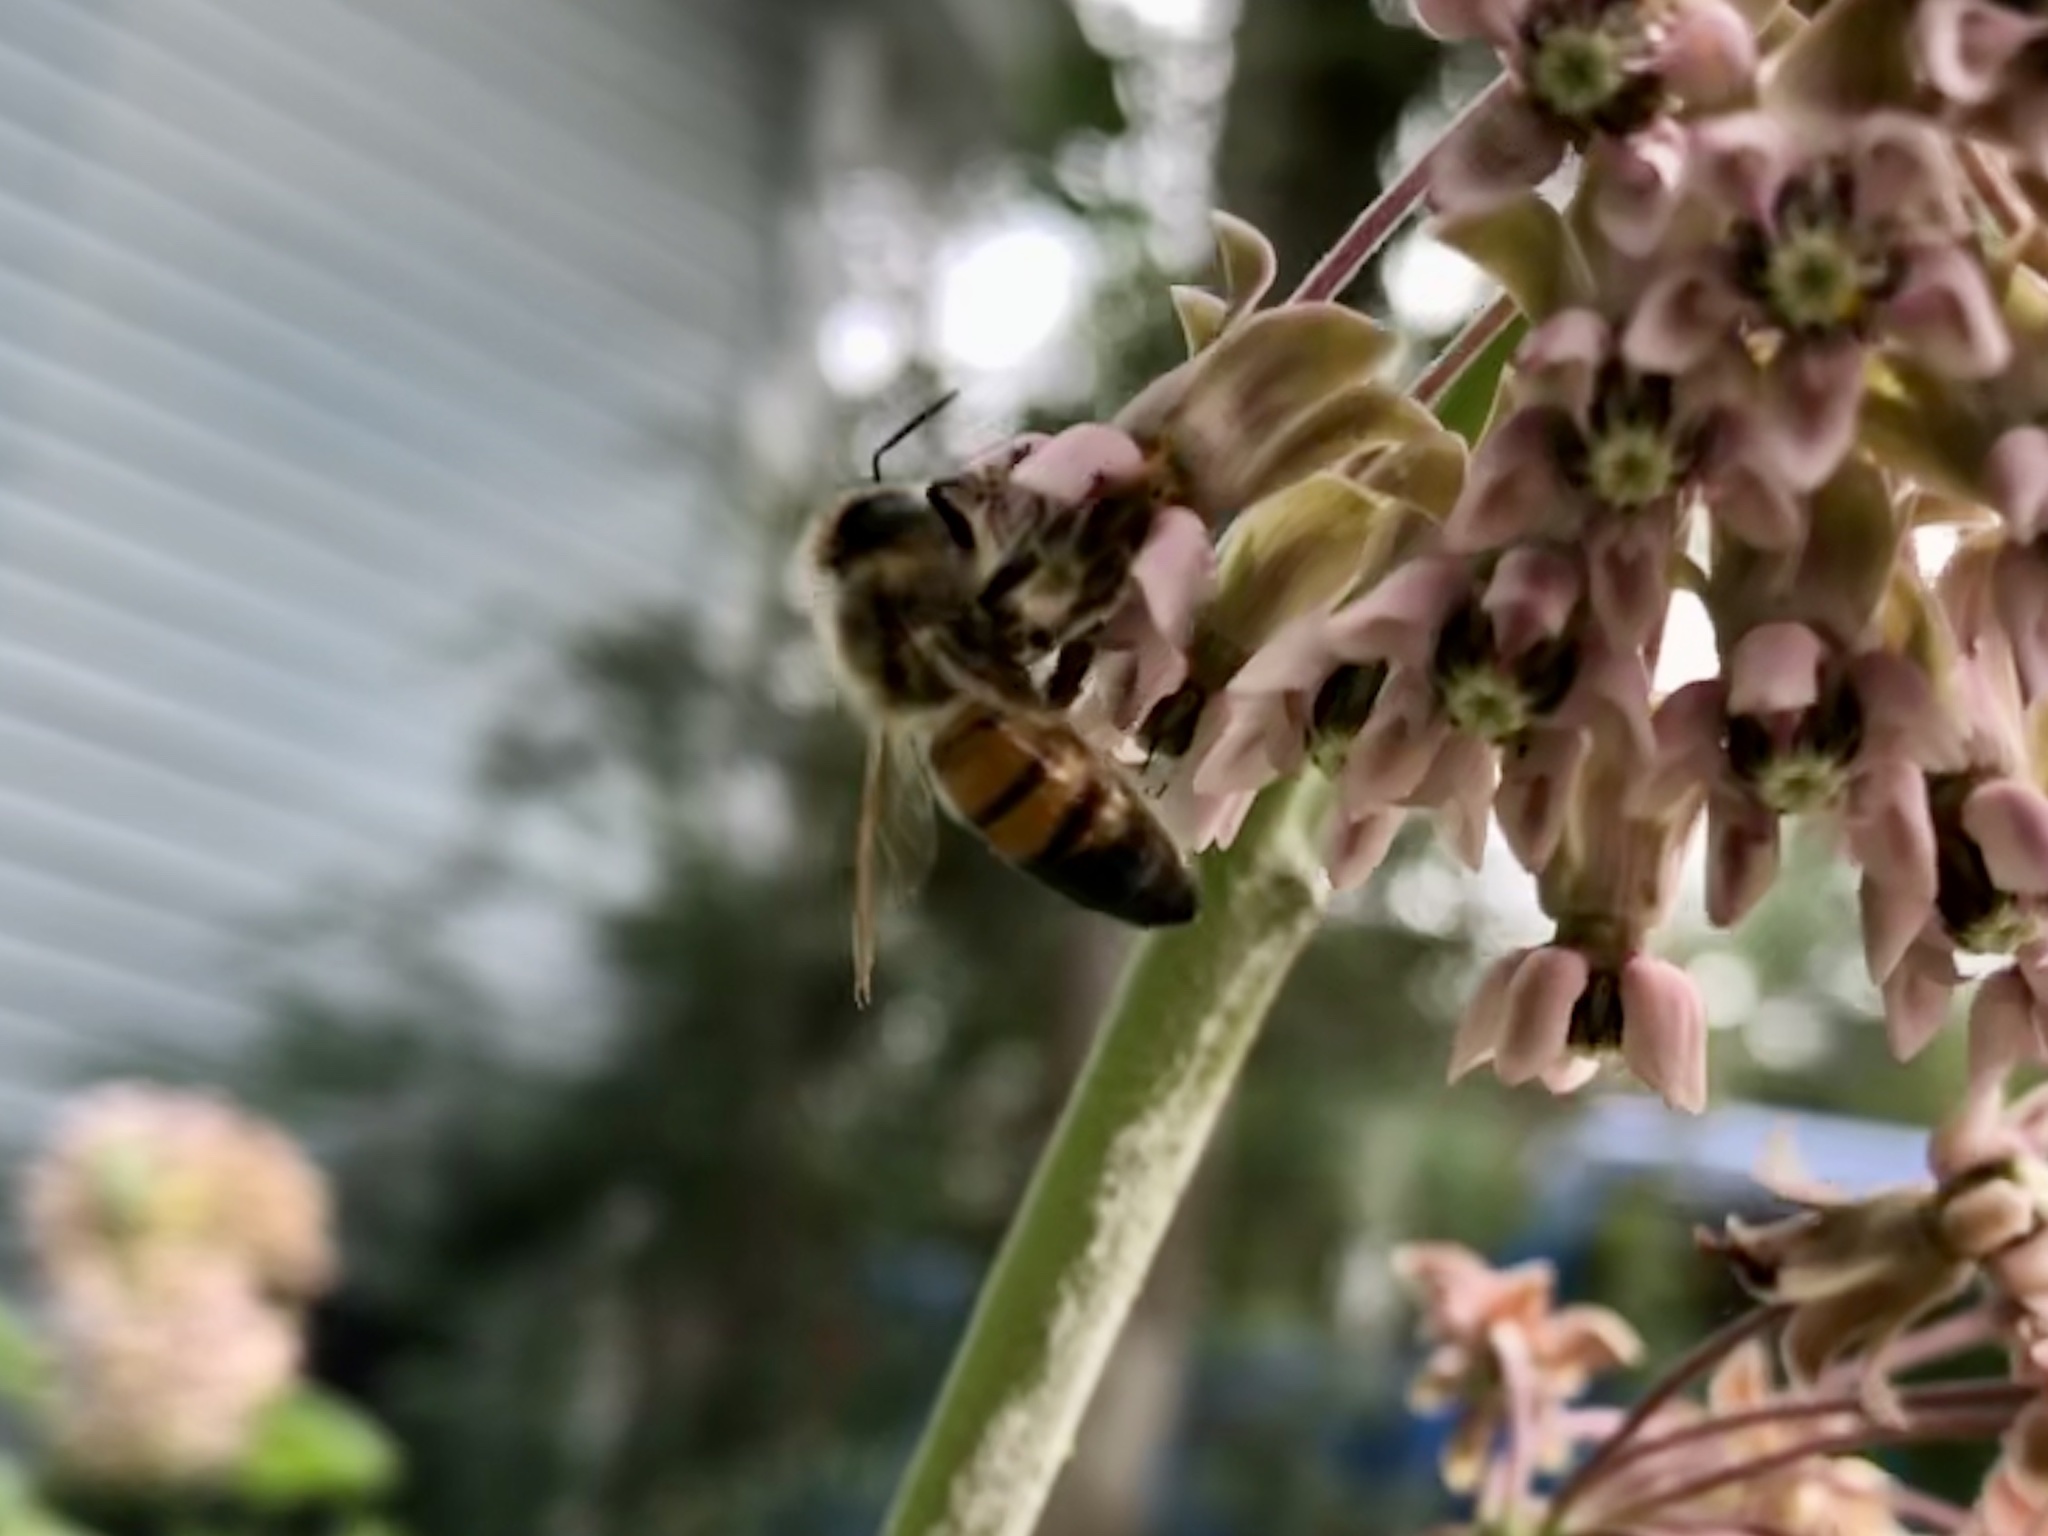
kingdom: Animalia
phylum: Arthropoda
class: Insecta
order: Hymenoptera
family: Apidae
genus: Apis
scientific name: Apis mellifera
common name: Honey bee
